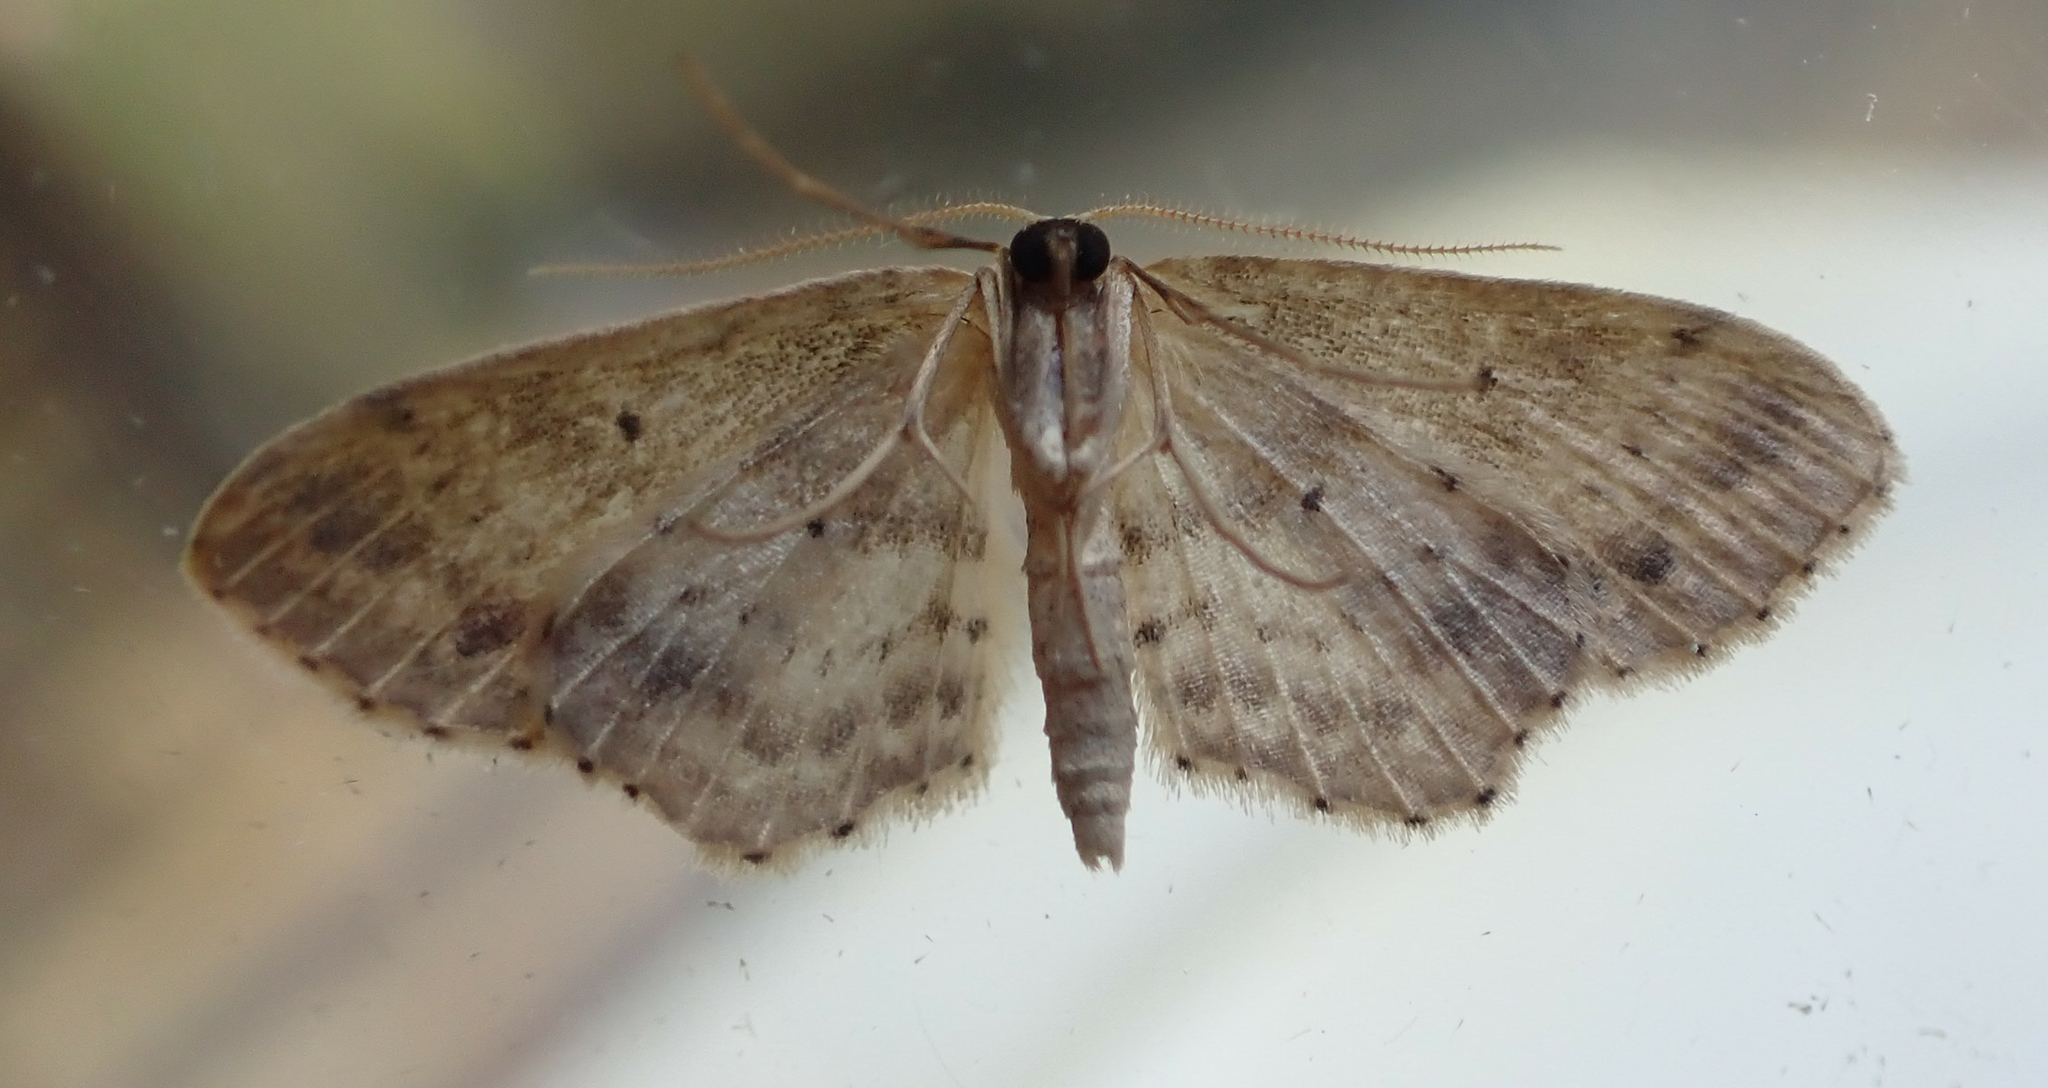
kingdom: Animalia
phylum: Arthropoda
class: Insecta
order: Lepidoptera
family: Geometridae
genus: Idaea
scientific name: Idaea dimidiata
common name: Single-dotted wave
